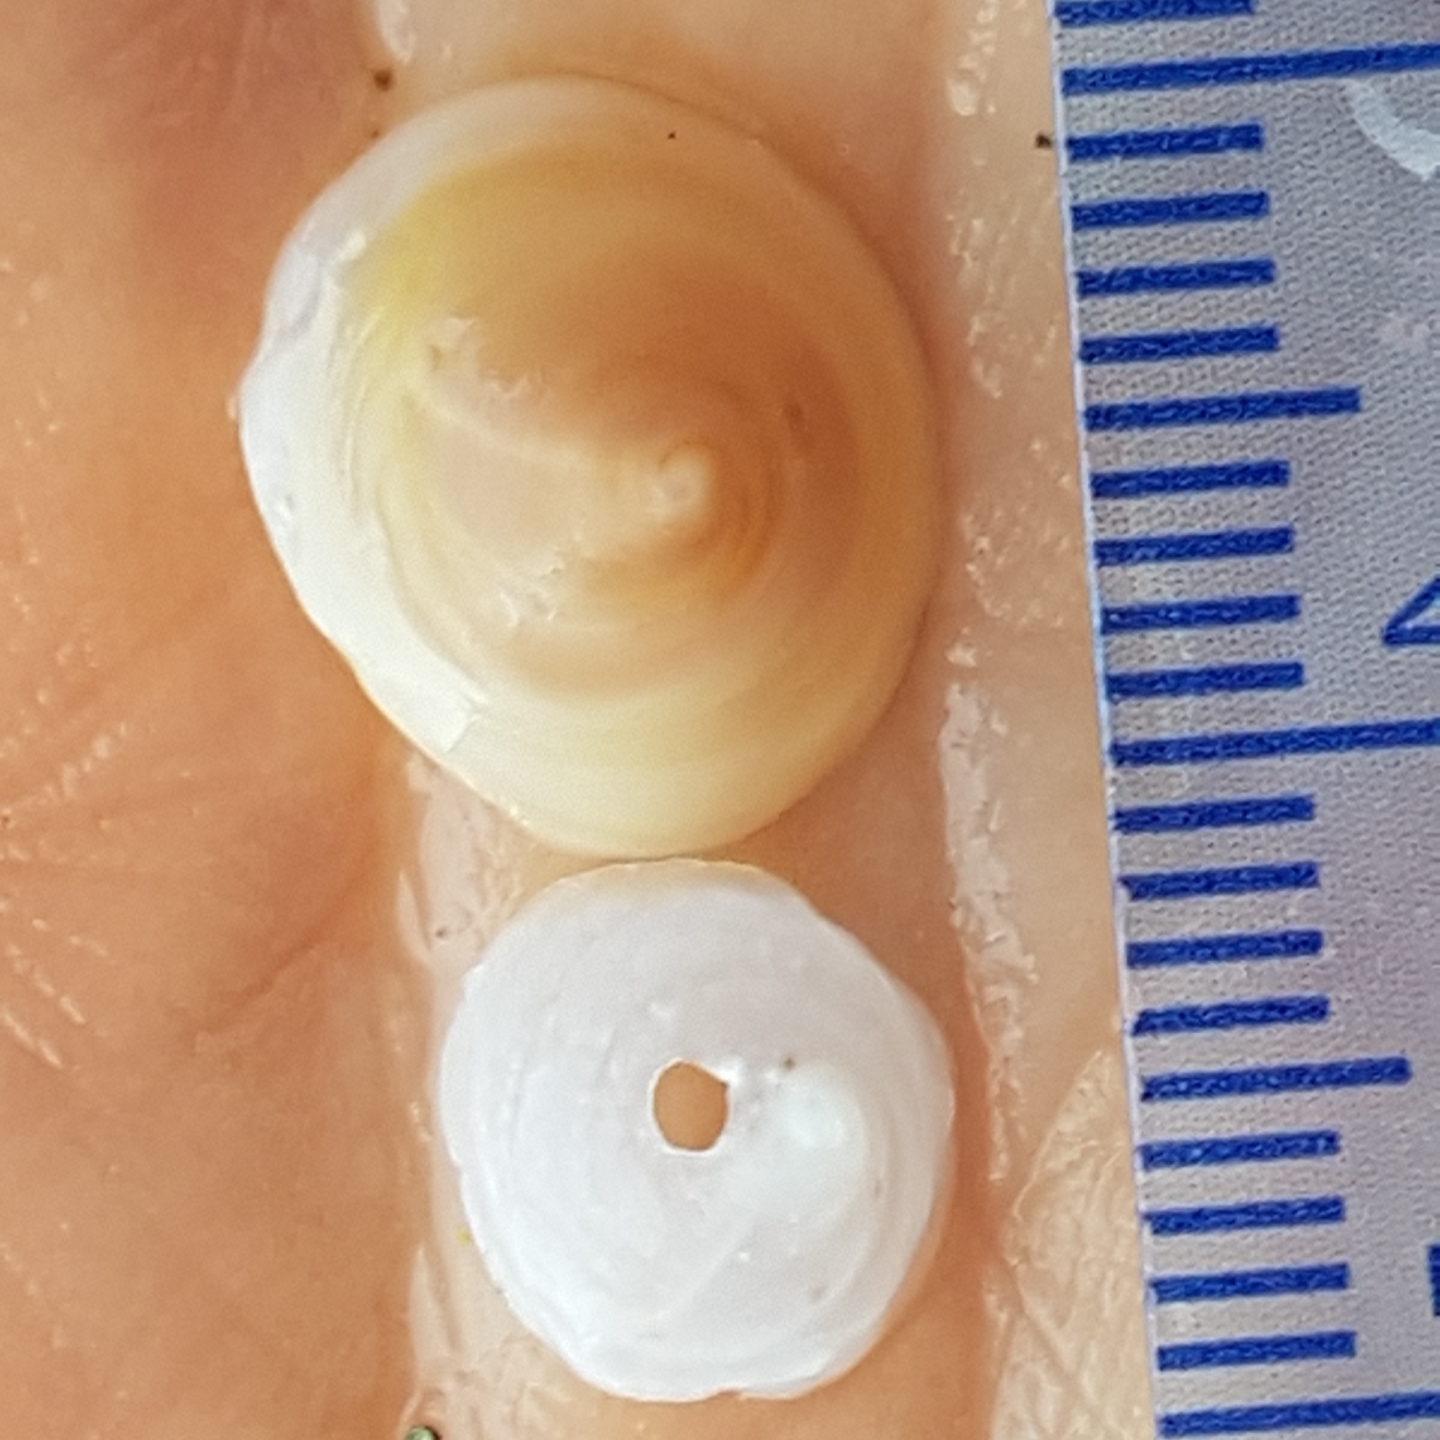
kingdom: Animalia
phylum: Mollusca
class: Gastropoda
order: Littorinimorpha
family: Calyptraeidae
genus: Calyptraea
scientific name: Calyptraea chinensis
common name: Chinaman's hat
